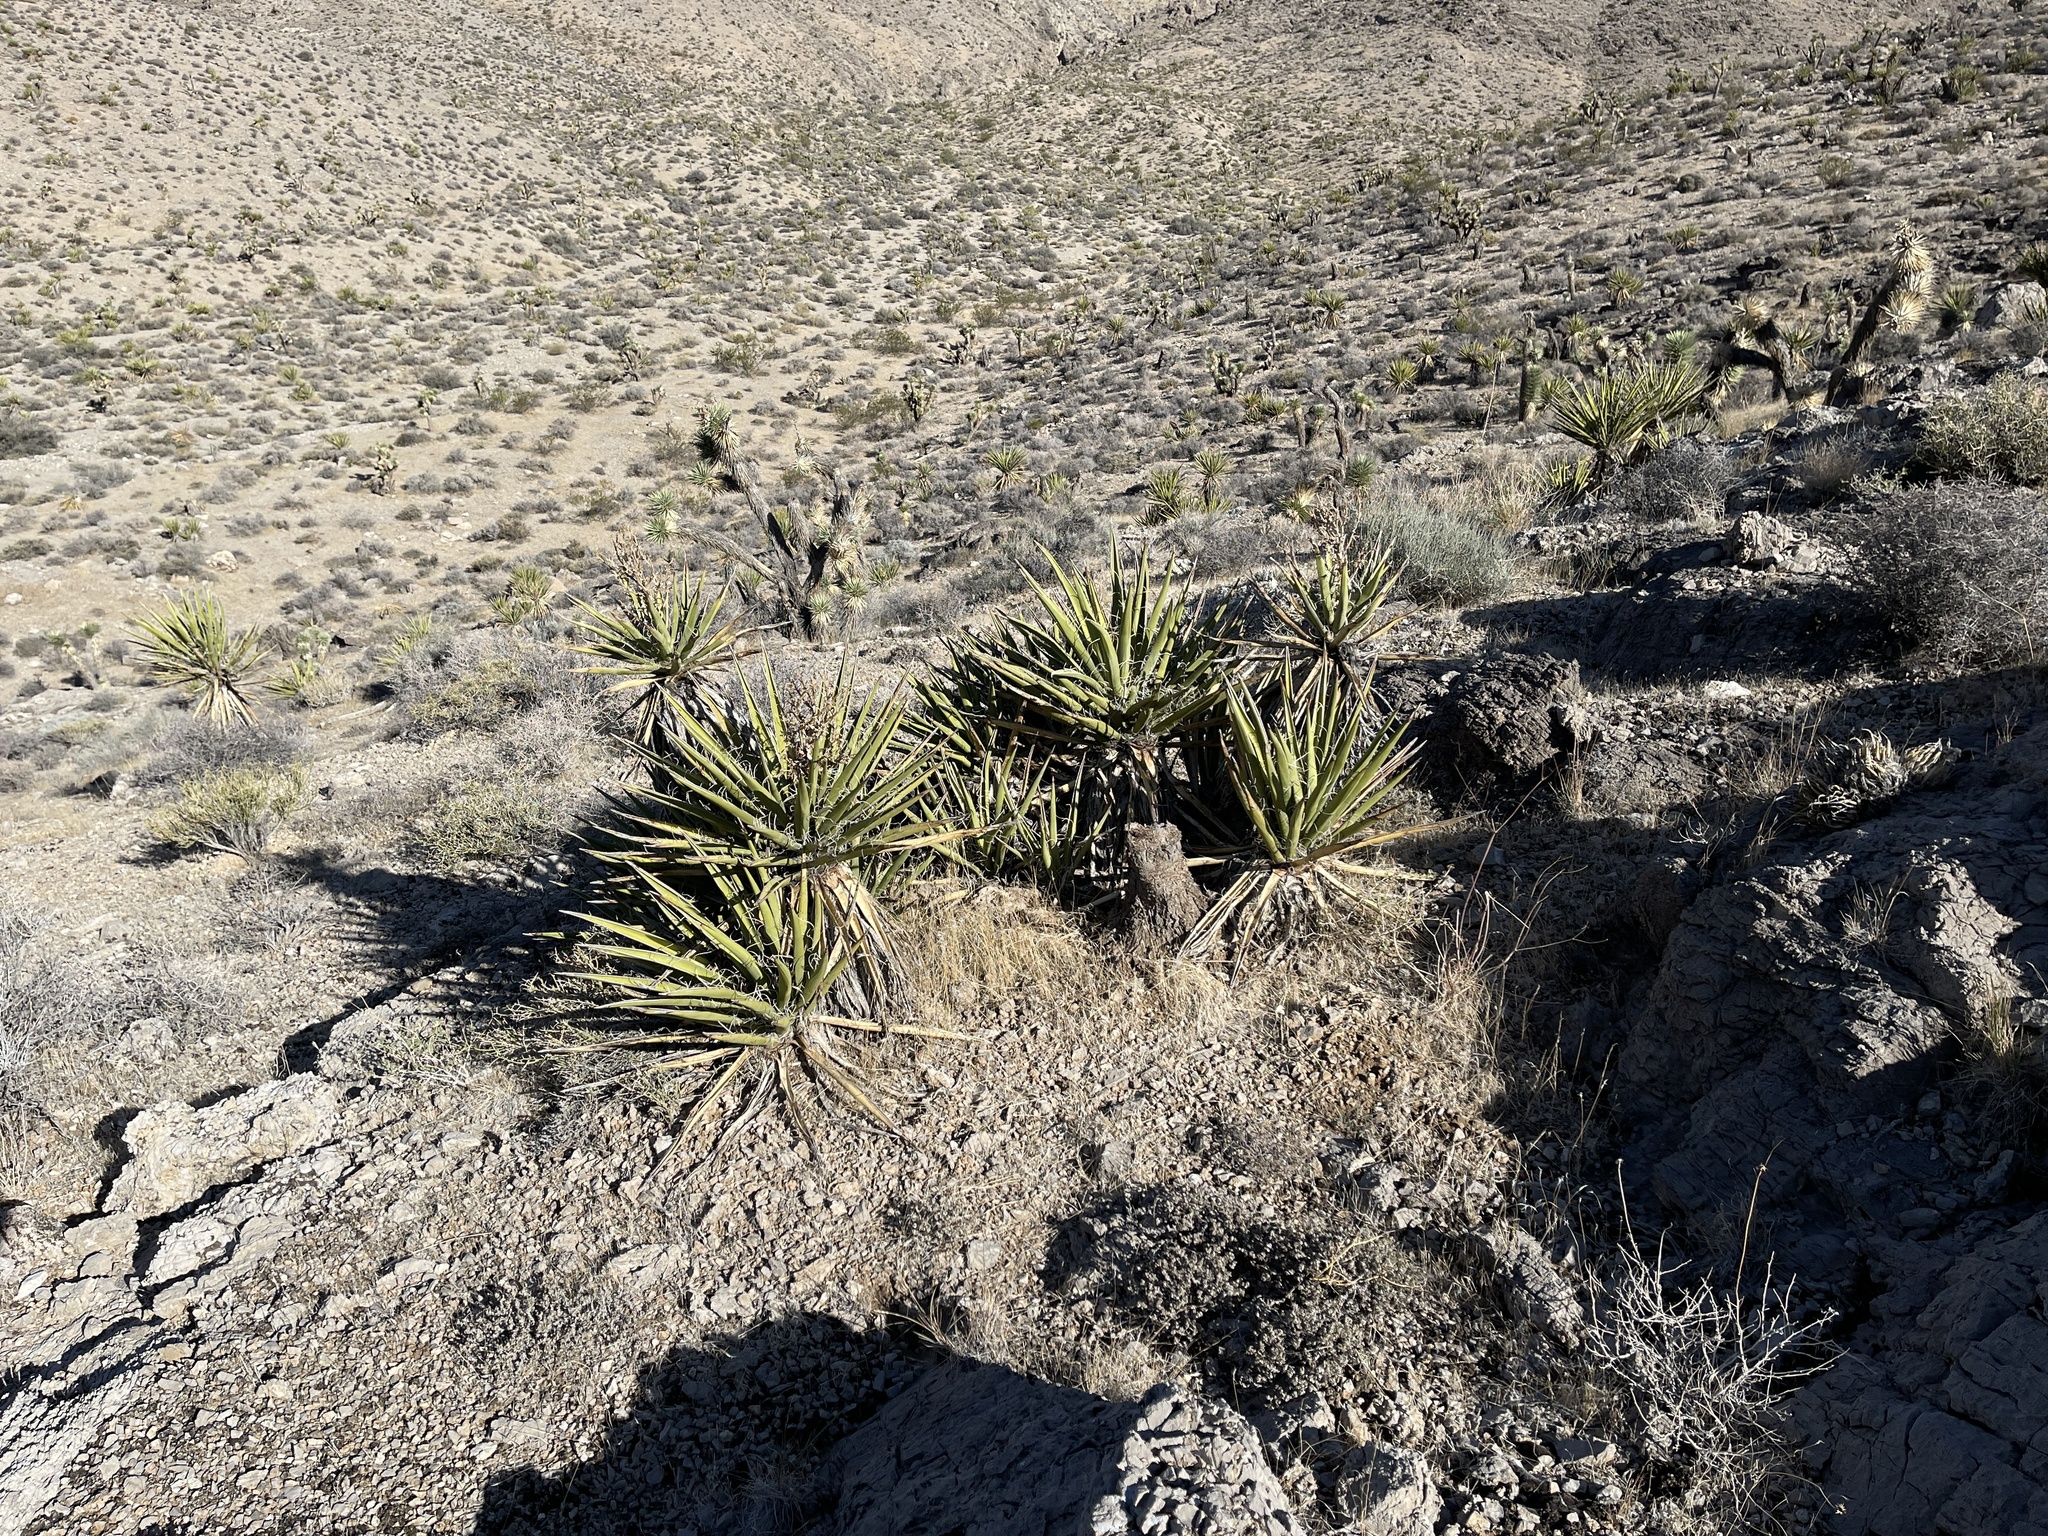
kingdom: Plantae
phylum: Tracheophyta
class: Liliopsida
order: Asparagales
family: Asparagaceae
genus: Yucca
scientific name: Yucca schidigera
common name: Mojave yucca
